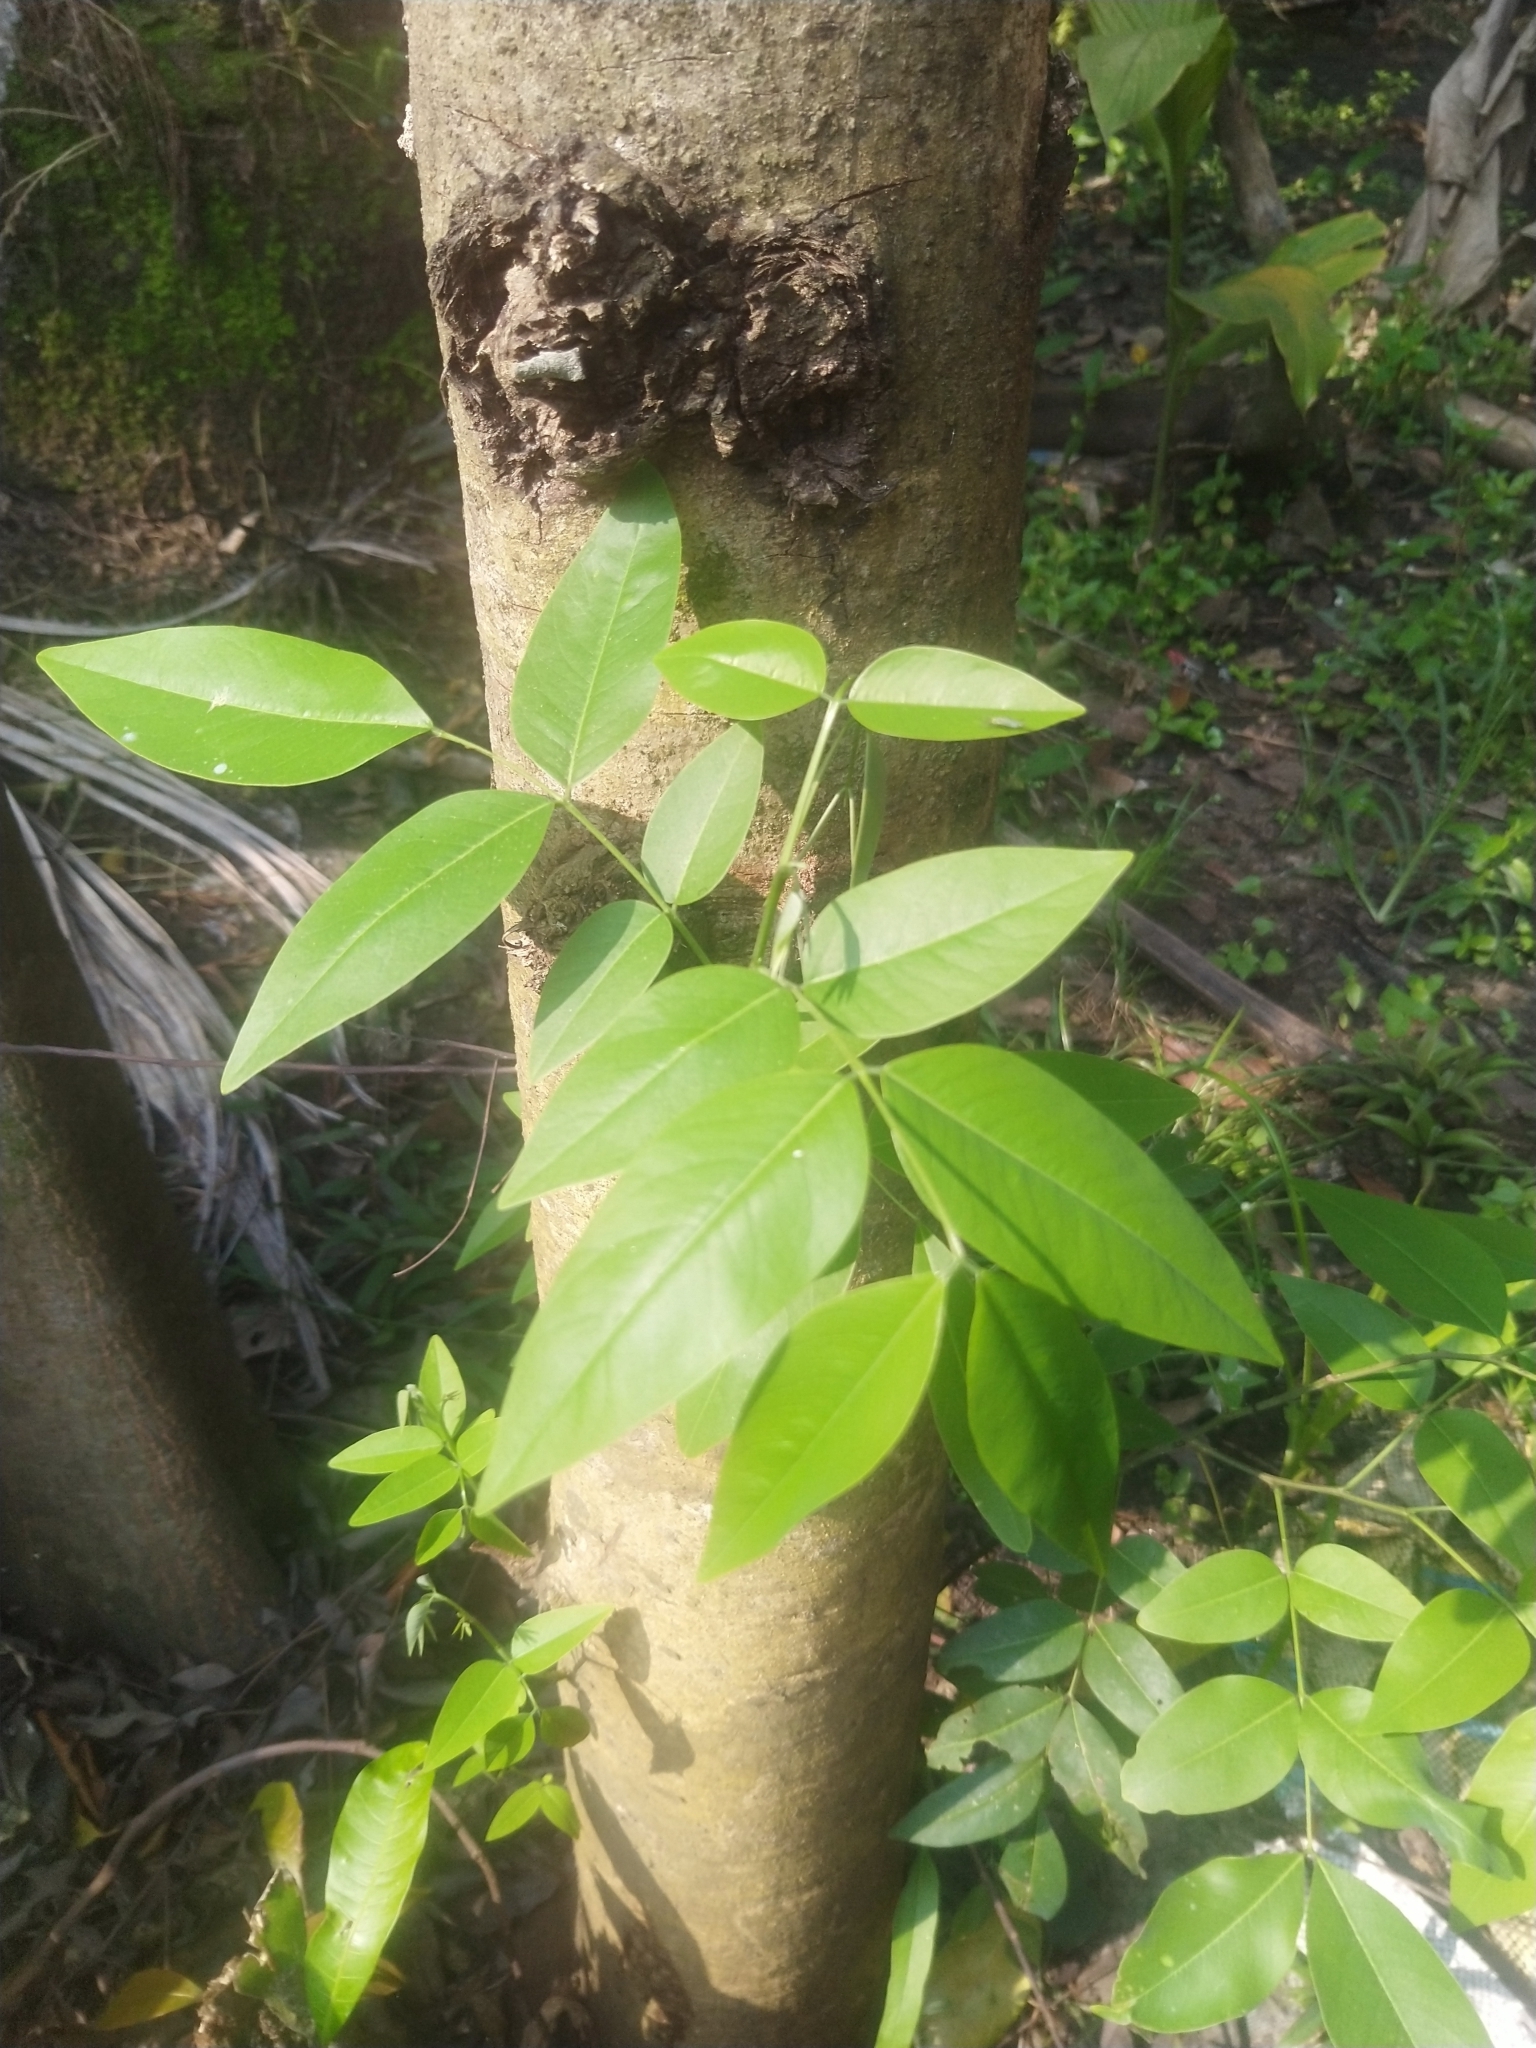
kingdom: Plantae
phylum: Tracheophyta
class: Magnoliopsida
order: Fabales
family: Fabaceae
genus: Cassia
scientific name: Cassia fistula
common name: Golden shower
